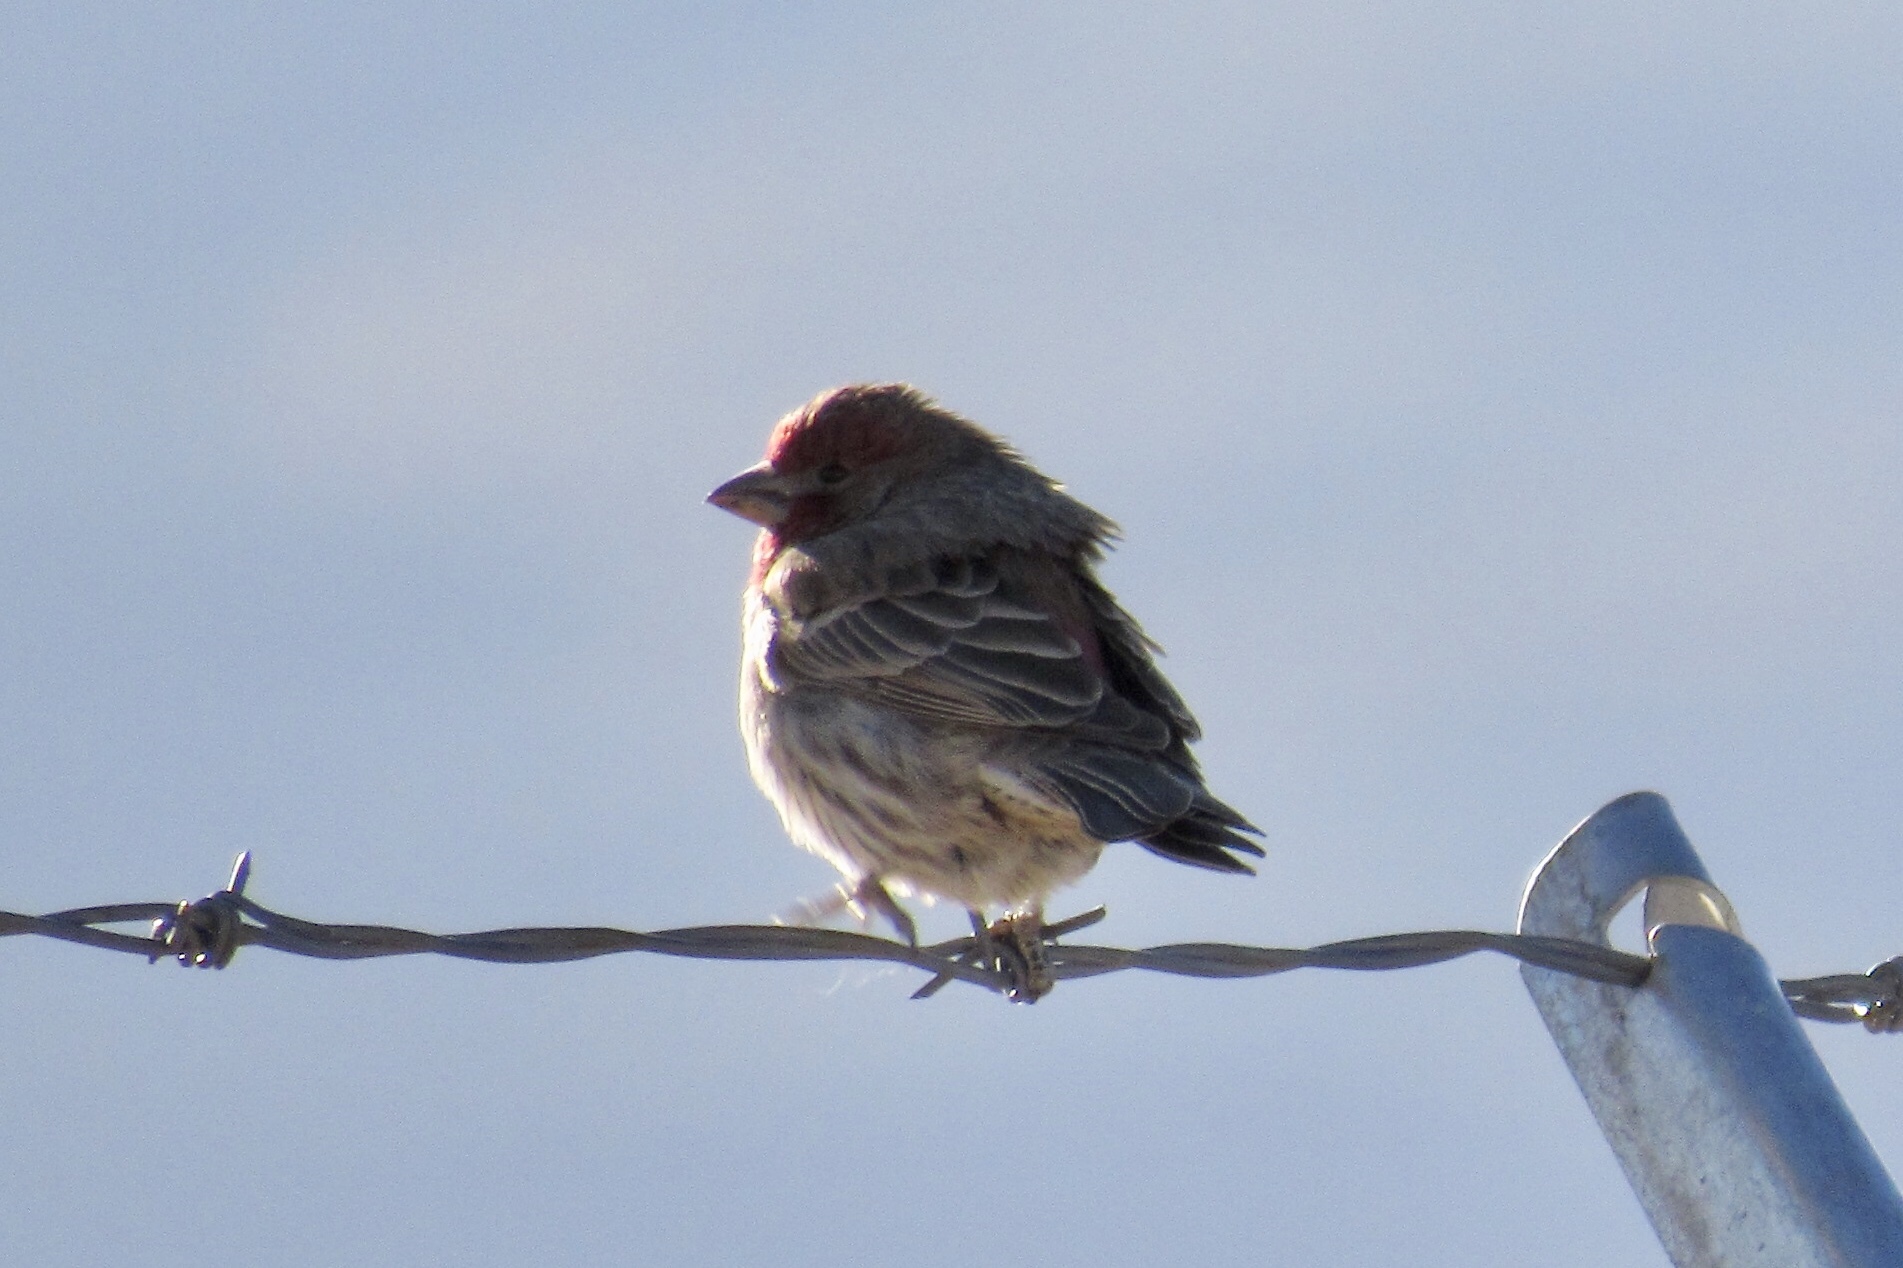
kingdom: Animalia
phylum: Chordata
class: Aves
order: Passeriformes
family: Fringillidae
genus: Haemorhous
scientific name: Haemorhous mexicanus
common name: House finch
